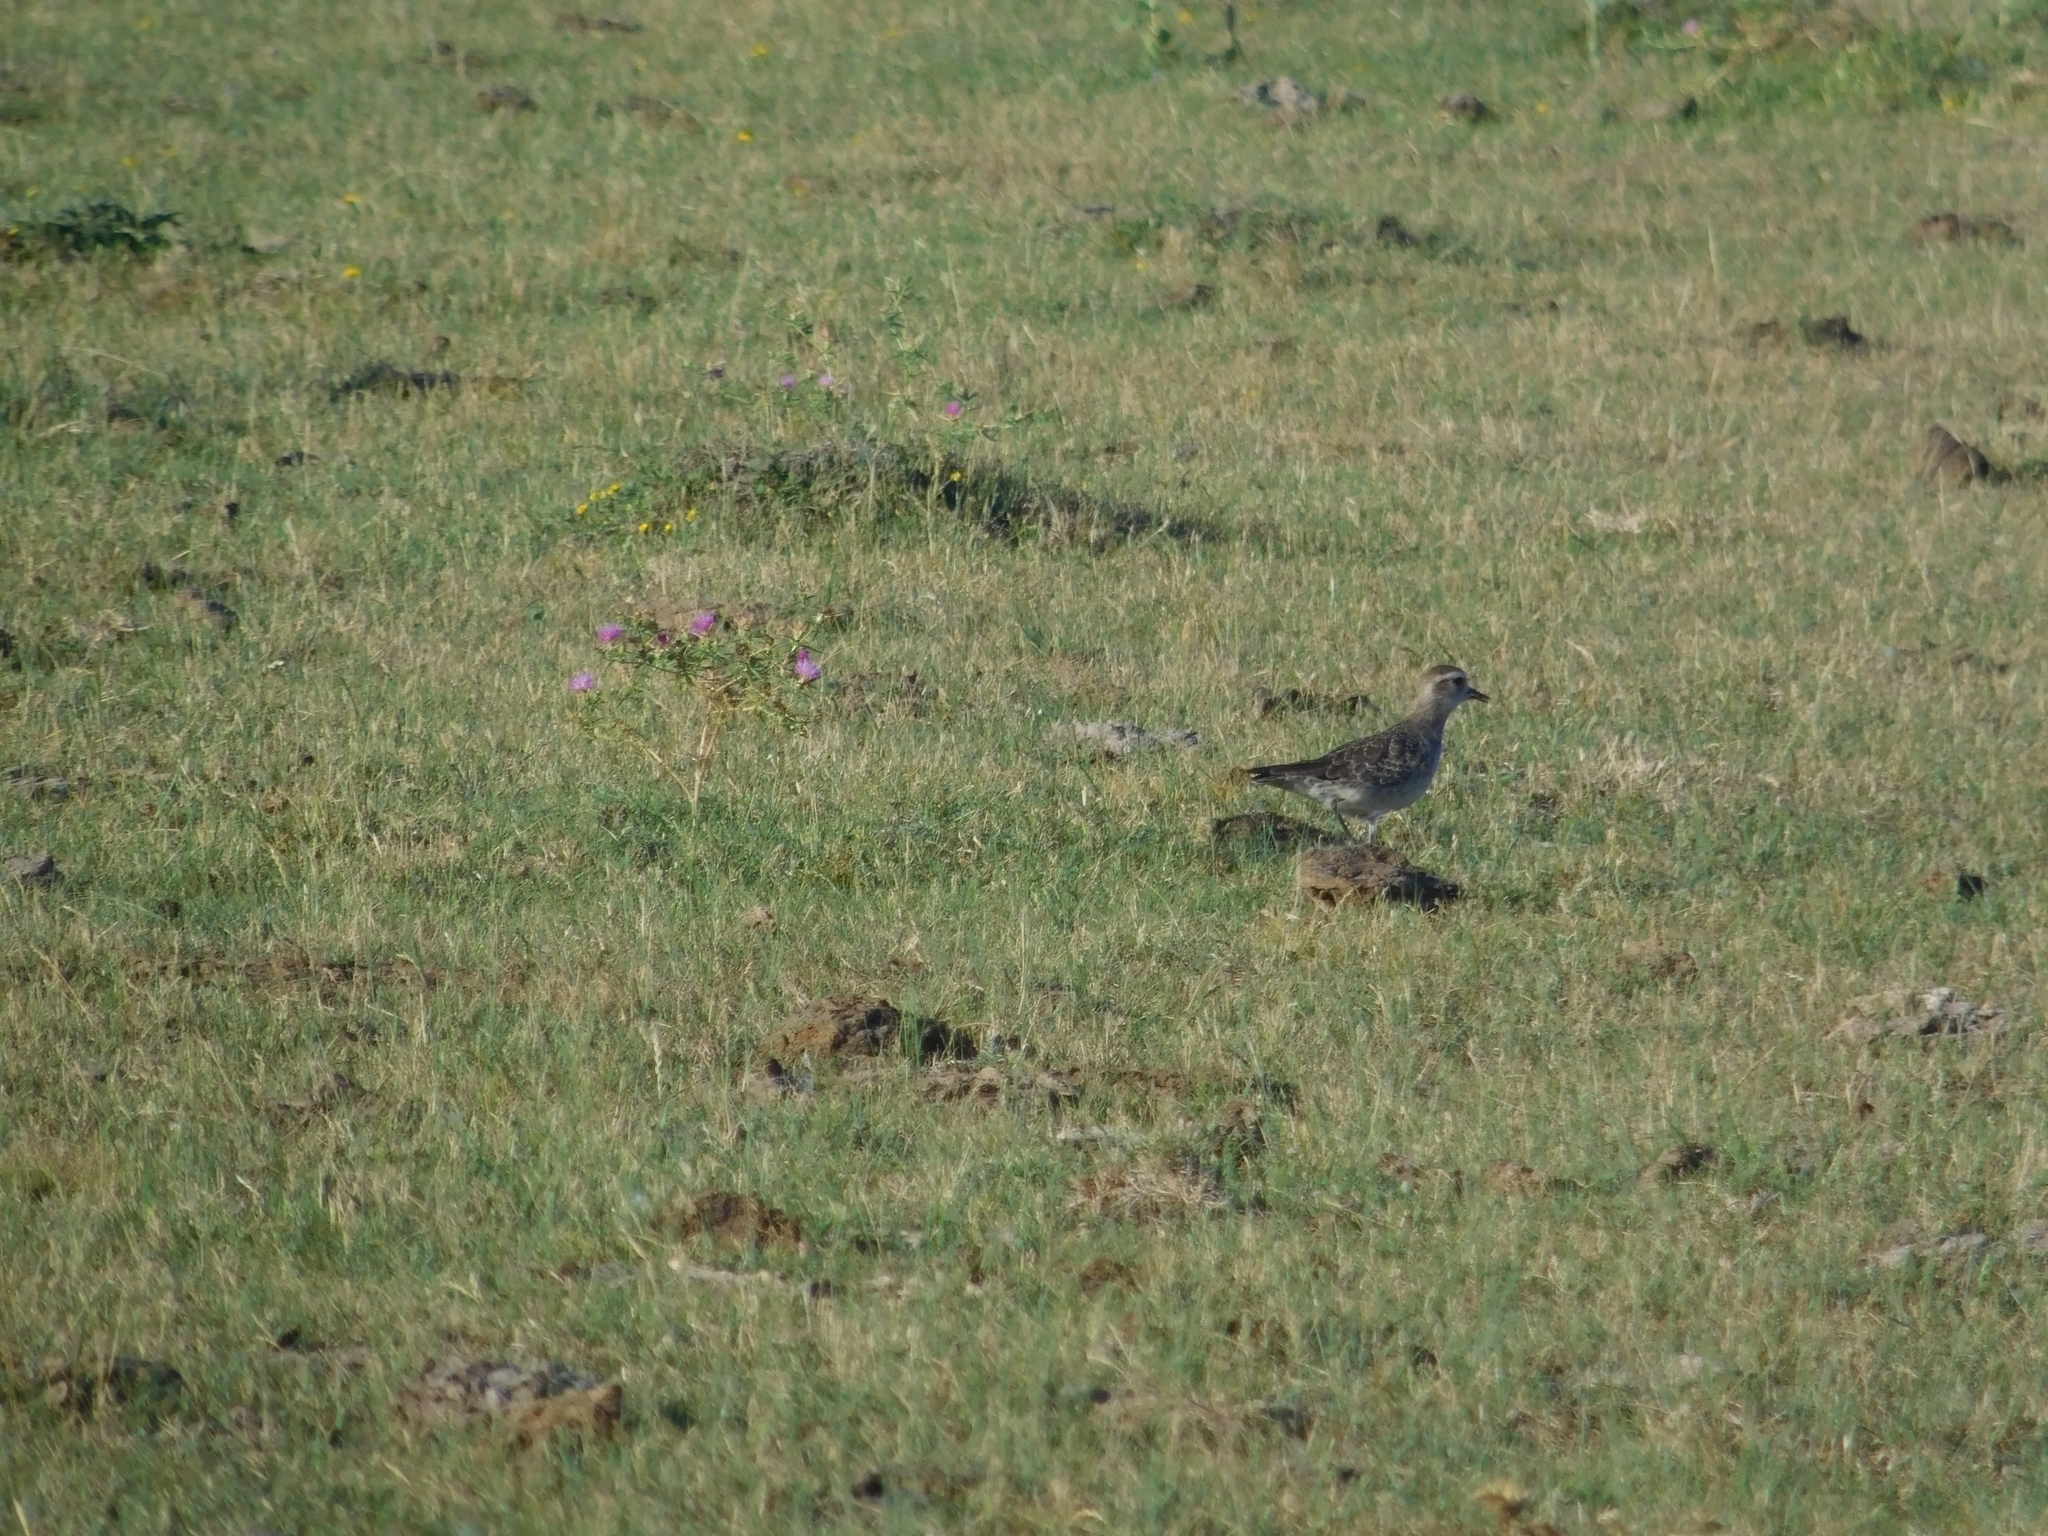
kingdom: Animalia
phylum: Chordata
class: Aves
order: Charadriiformes
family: Charadriidae
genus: Pluvialis
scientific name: Pluvialis dominica
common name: American golden plover
